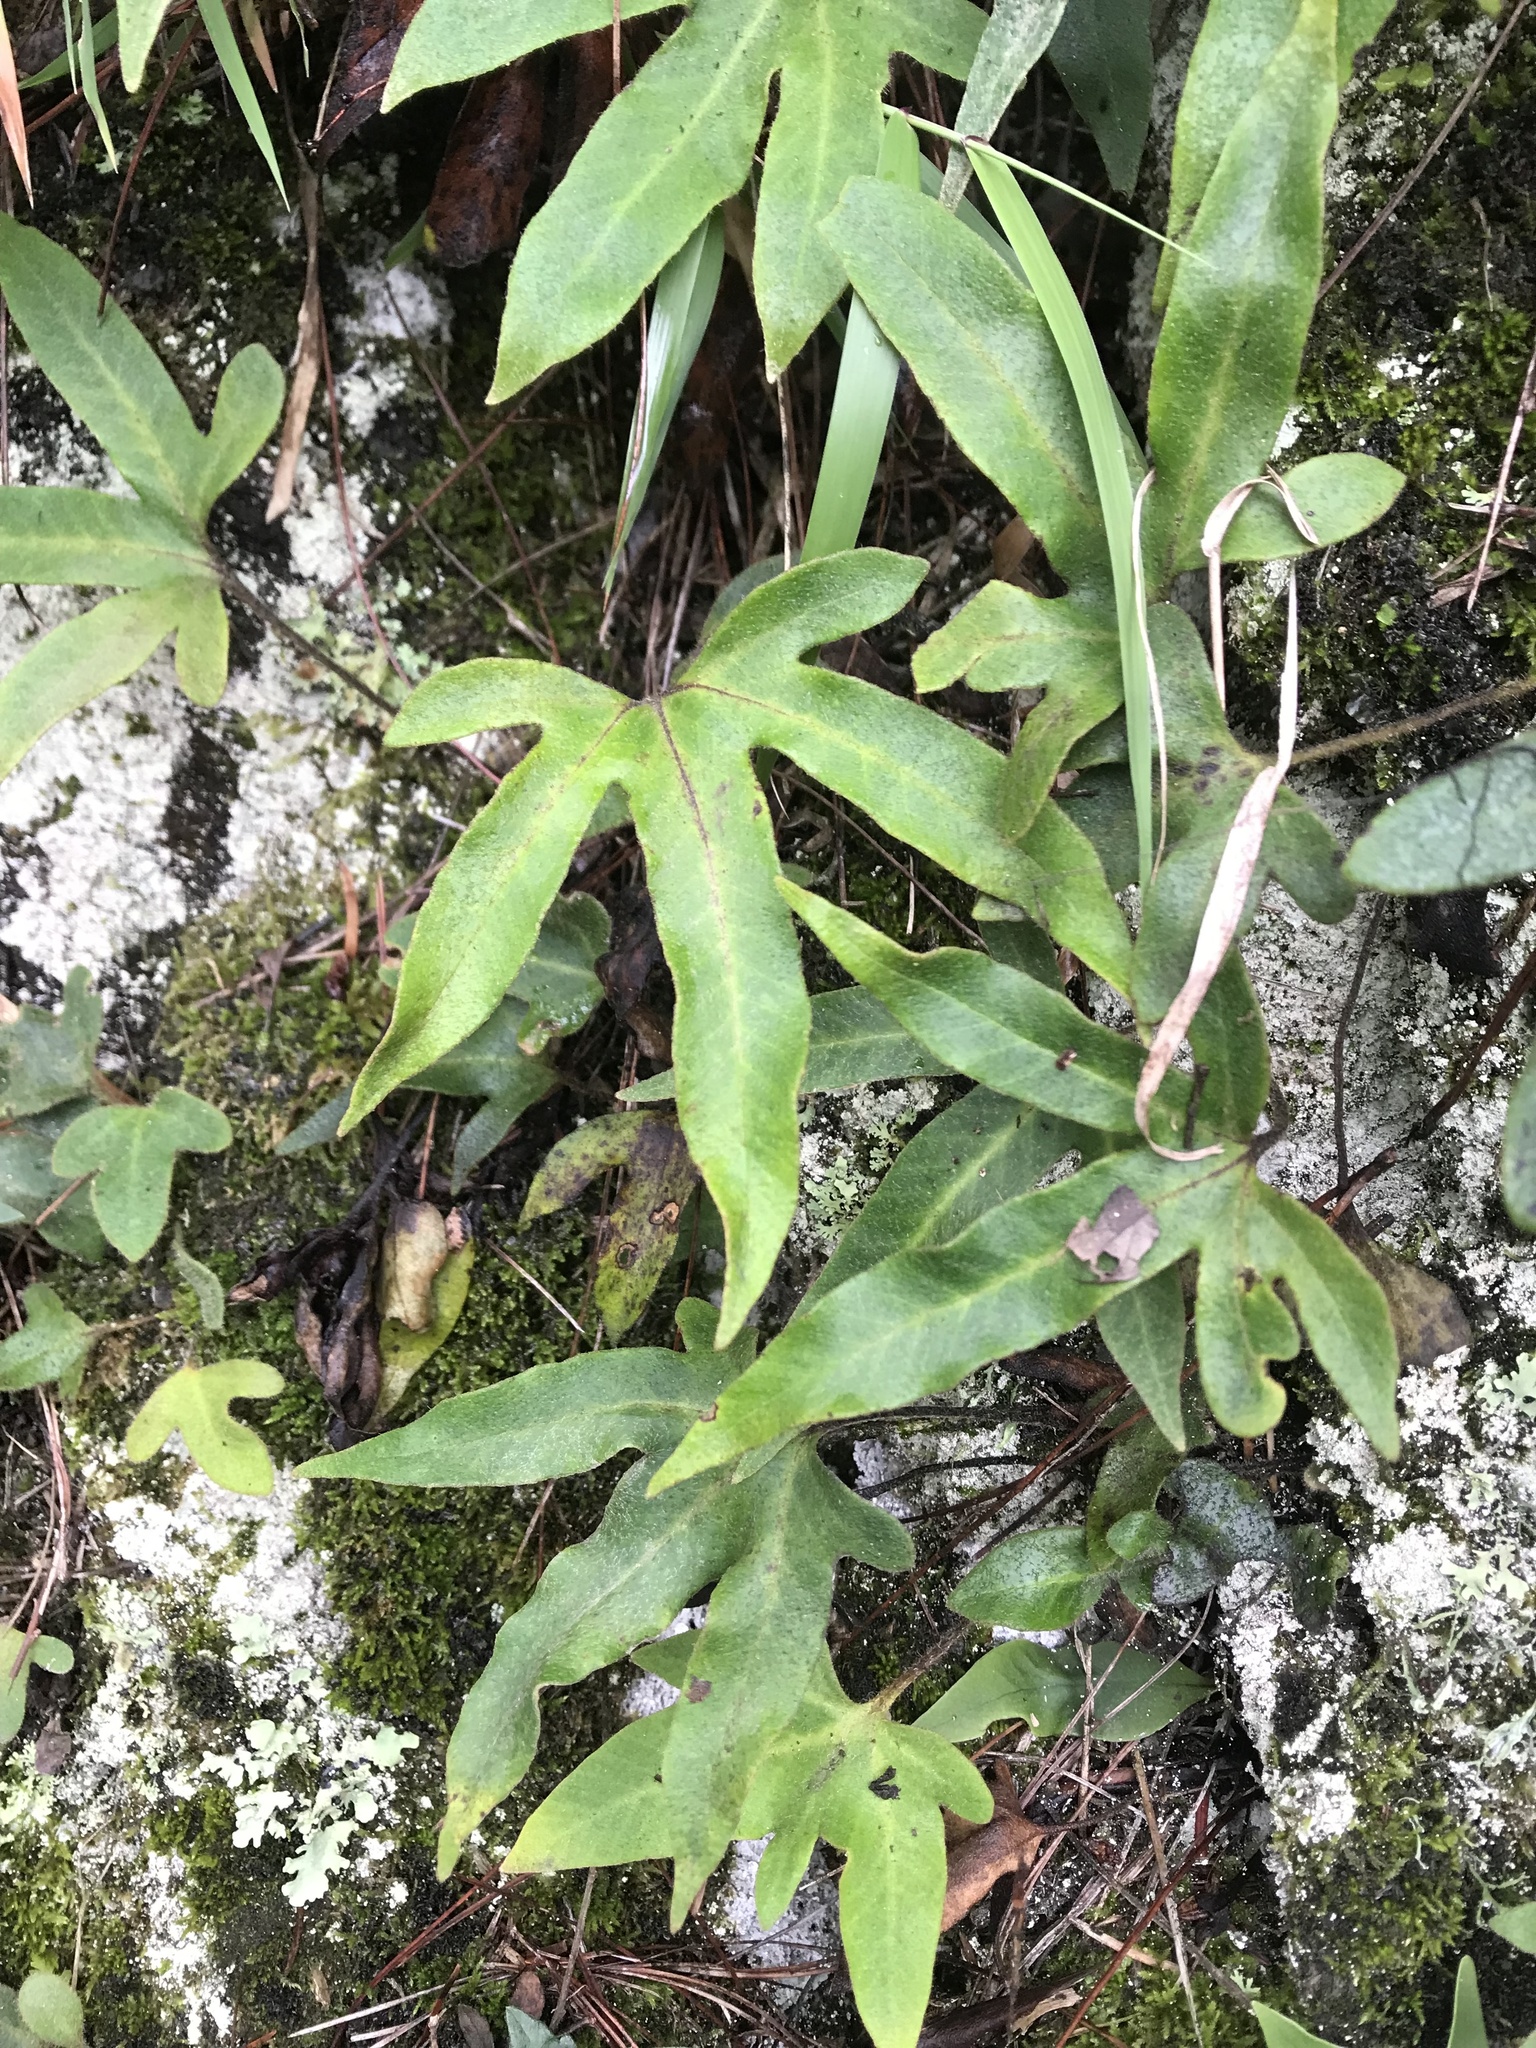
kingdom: Plantae
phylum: Tracheophyta
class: Polypodiopsida
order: Polypodiales
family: Polypodiaceae
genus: Pyrrosia
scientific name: Pyrrosia polydactyla
